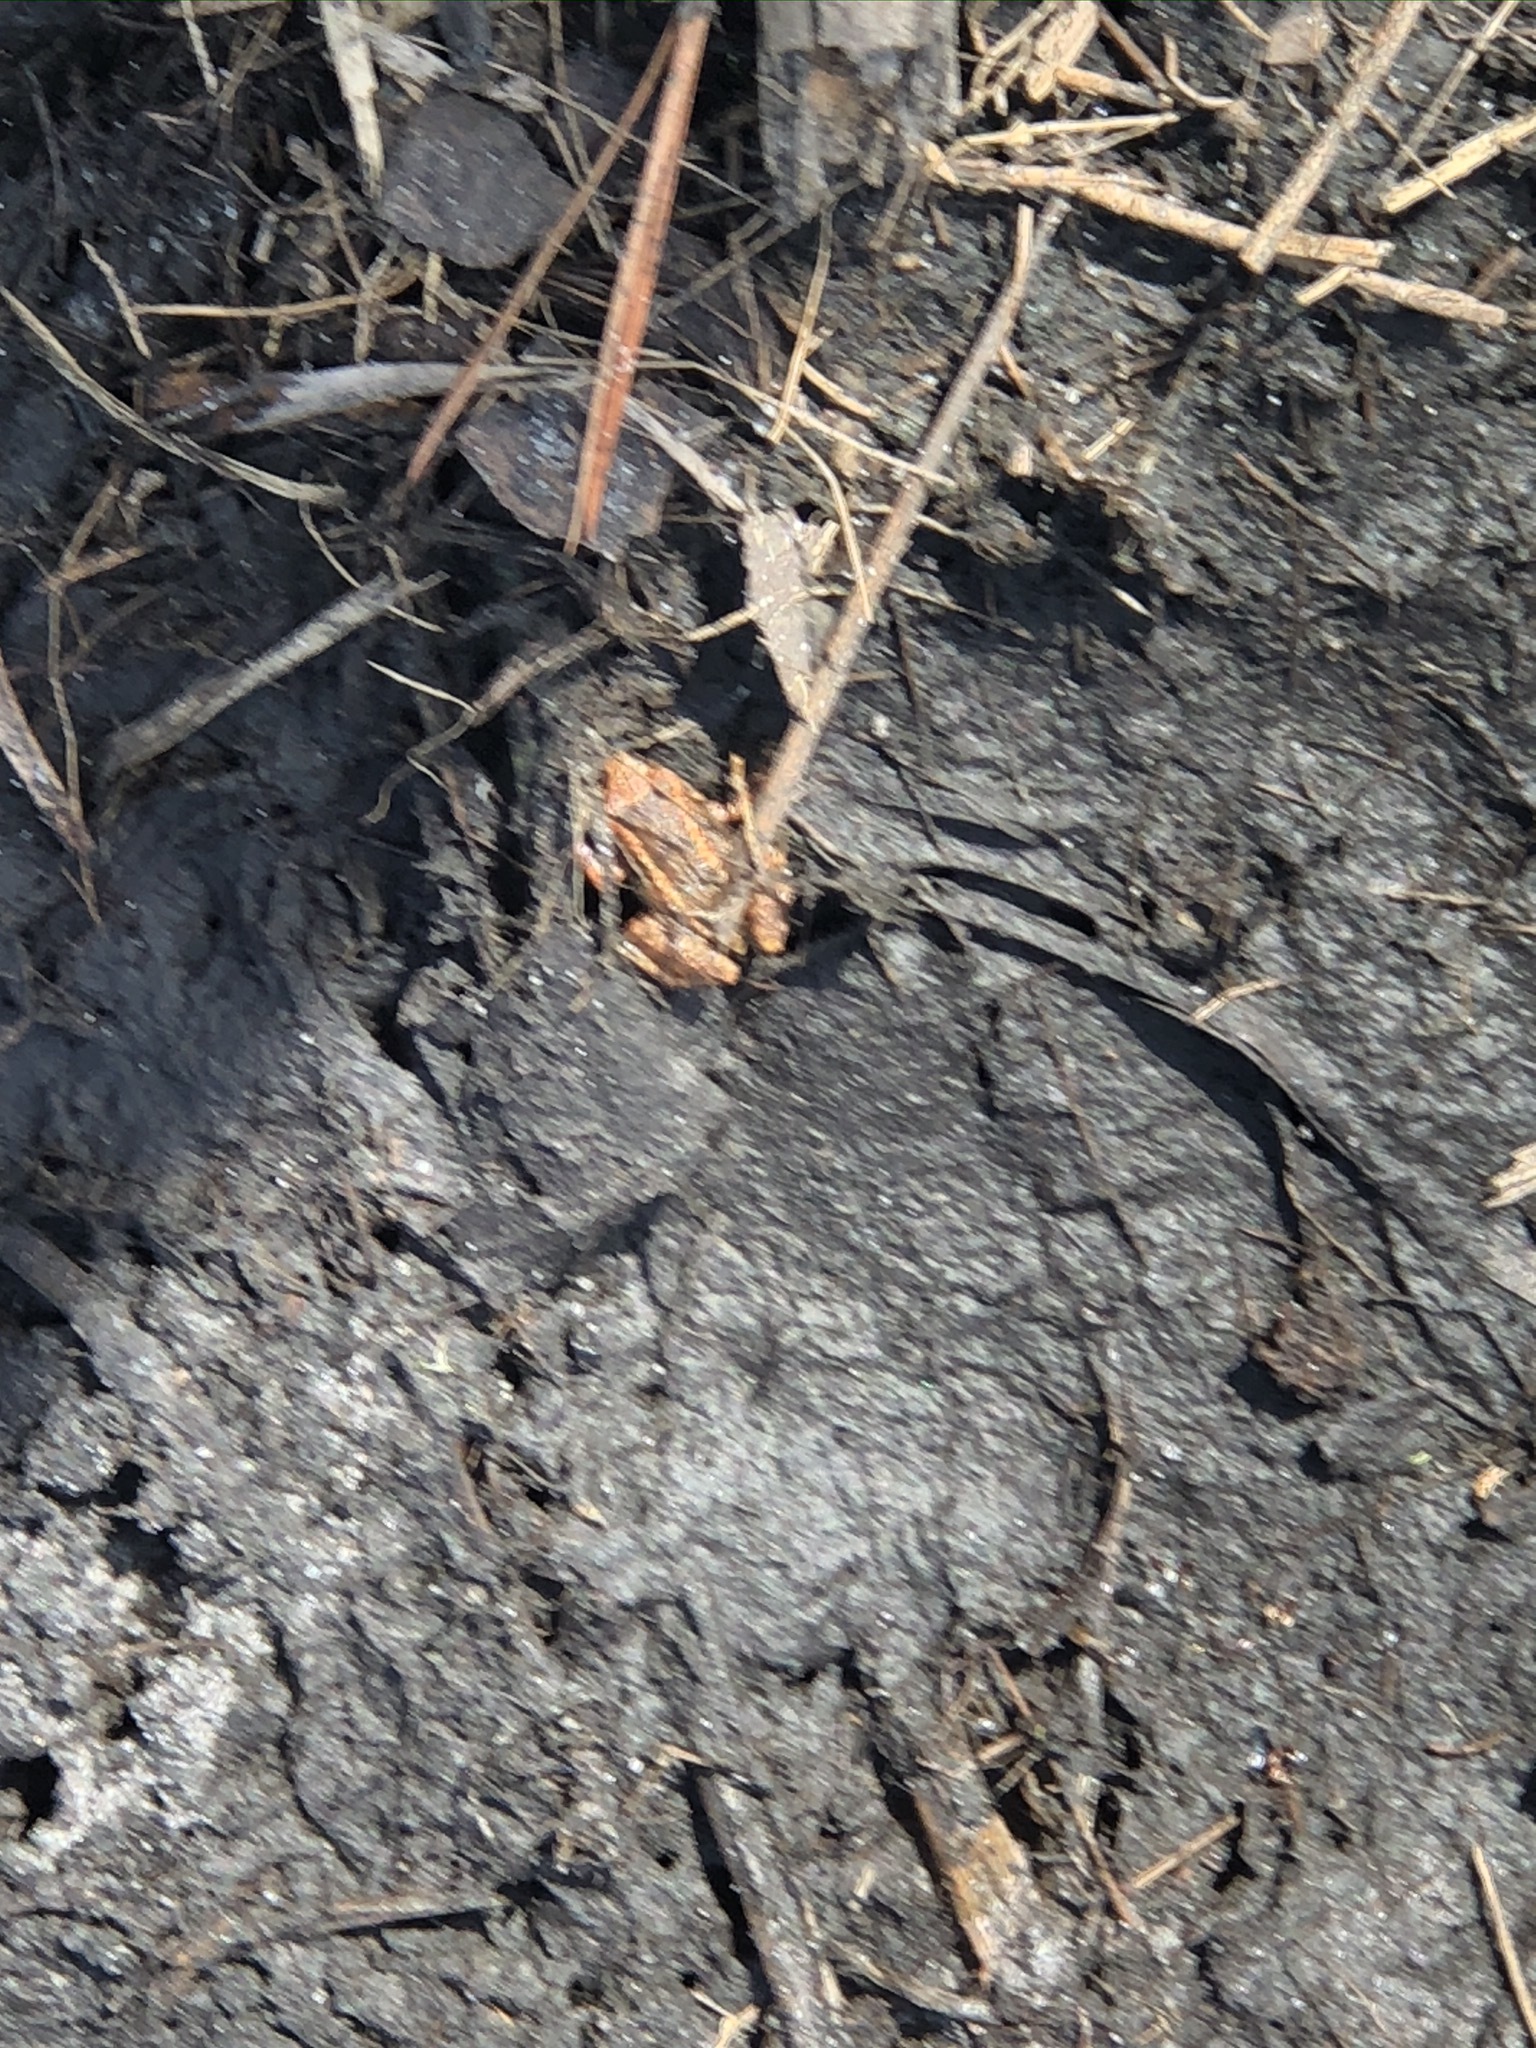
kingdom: Animalia
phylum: Chordata
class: Amphibia
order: Anura
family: Eleutherodactylidae
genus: Eleutherodactylus
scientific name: Eleutherodactylus planirostris
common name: Greenhouse frog
